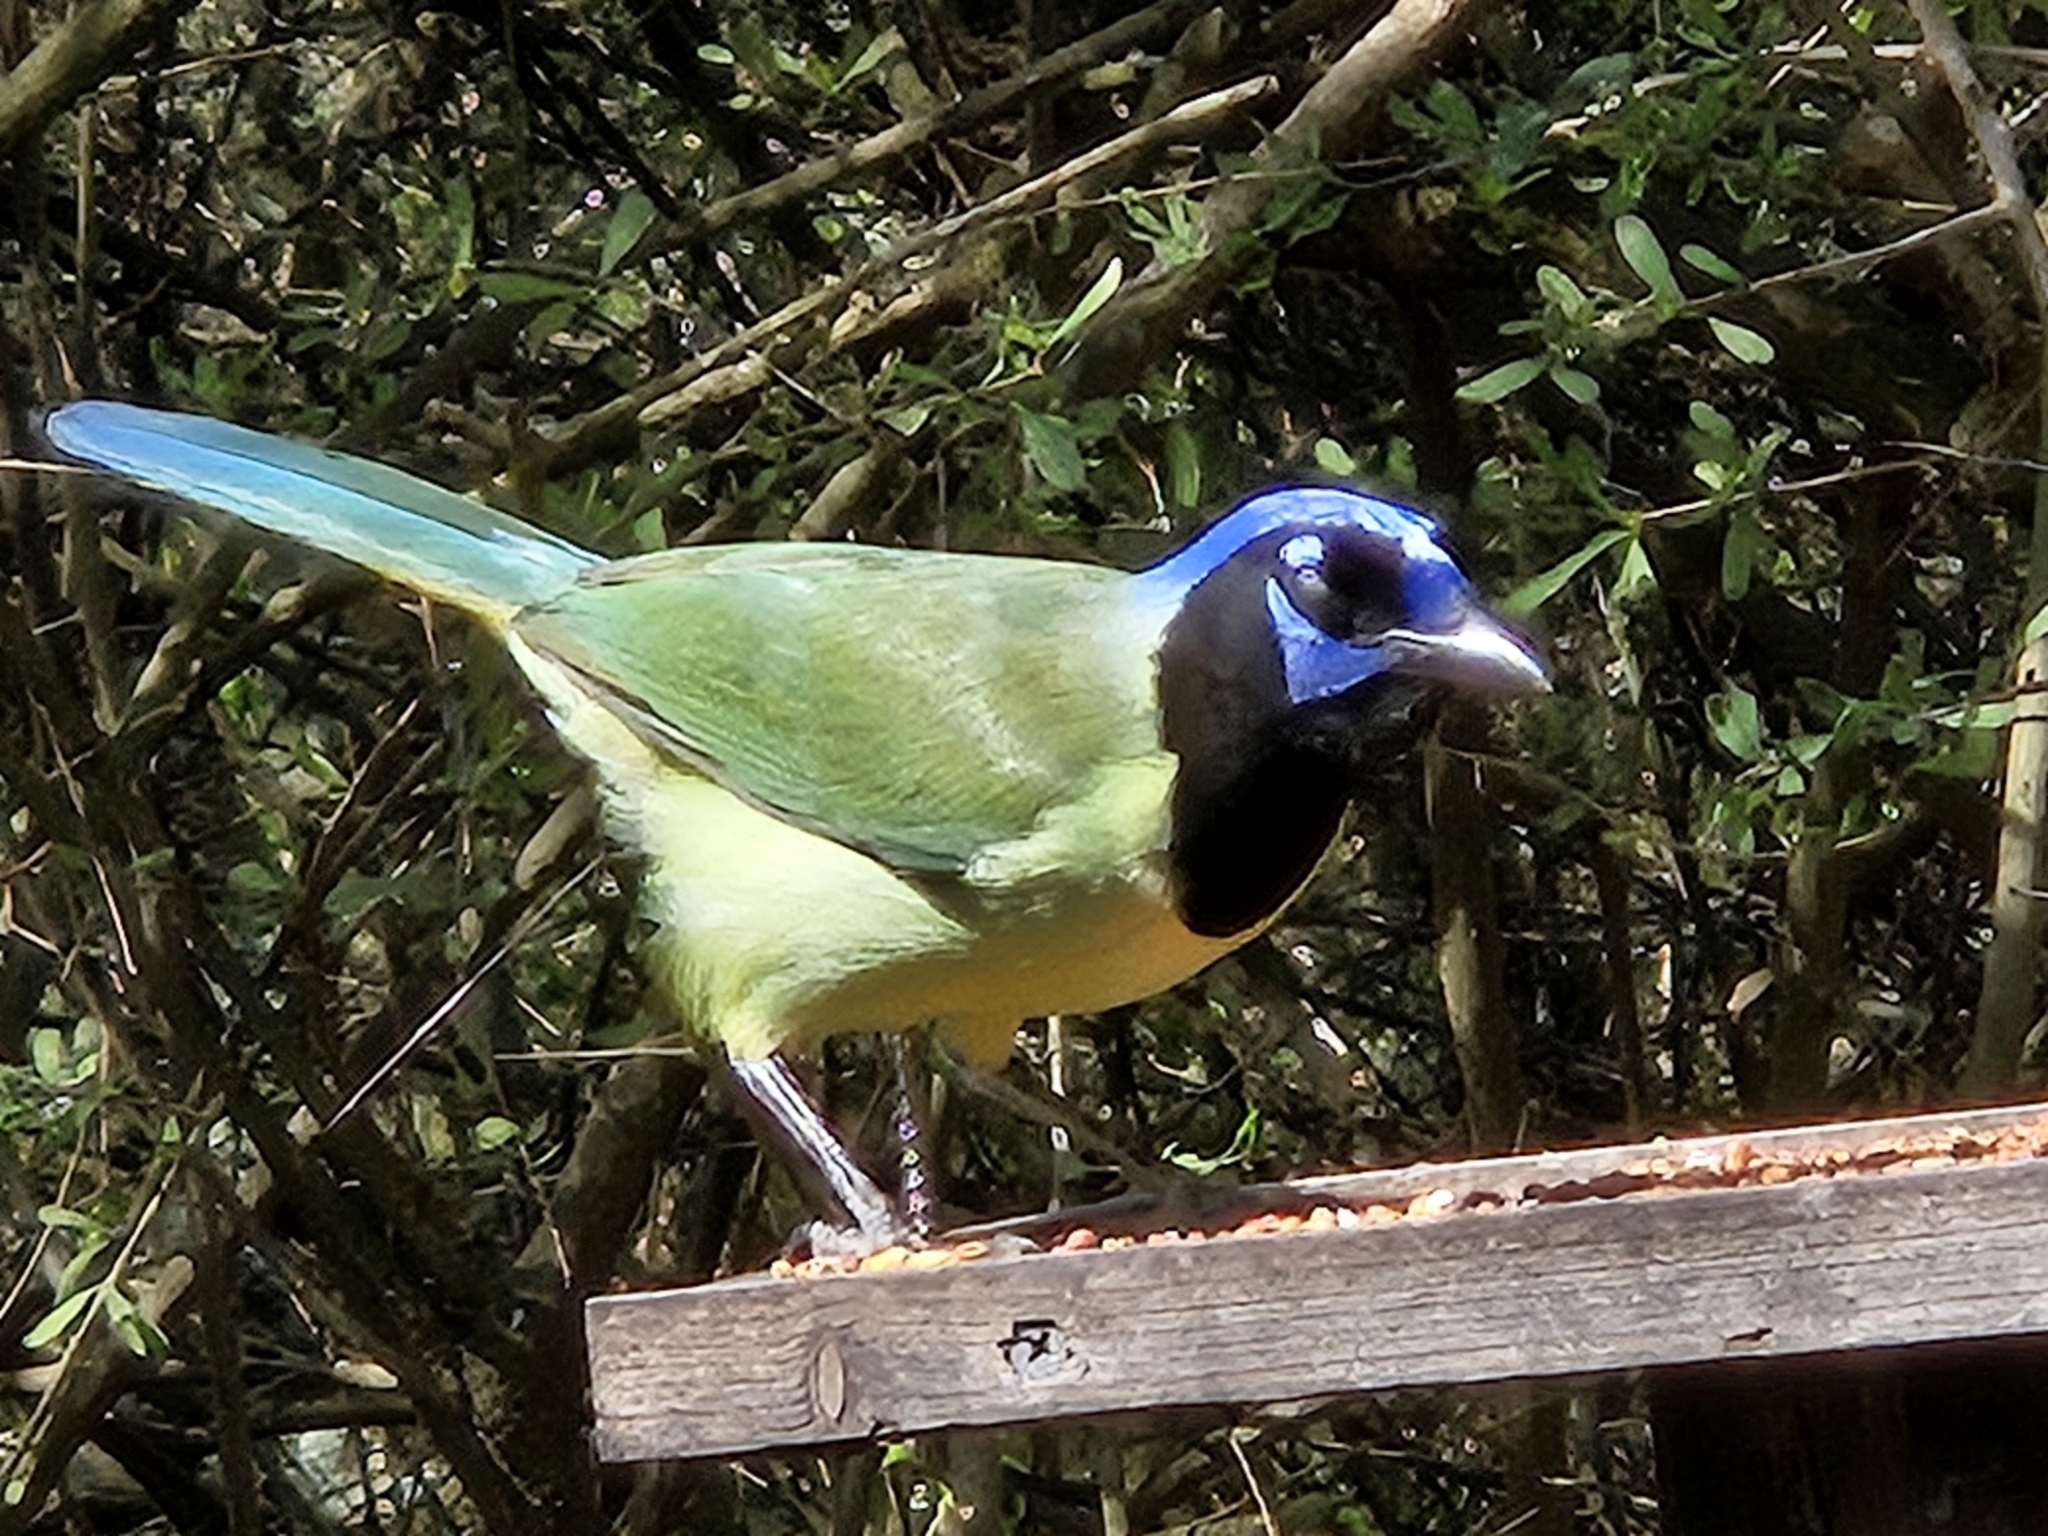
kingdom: Animalia
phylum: Chordata
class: Aves
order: Passeriformes
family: Corvidae
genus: Cyanocorax
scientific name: Cyanocorax yncas
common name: Green jay
